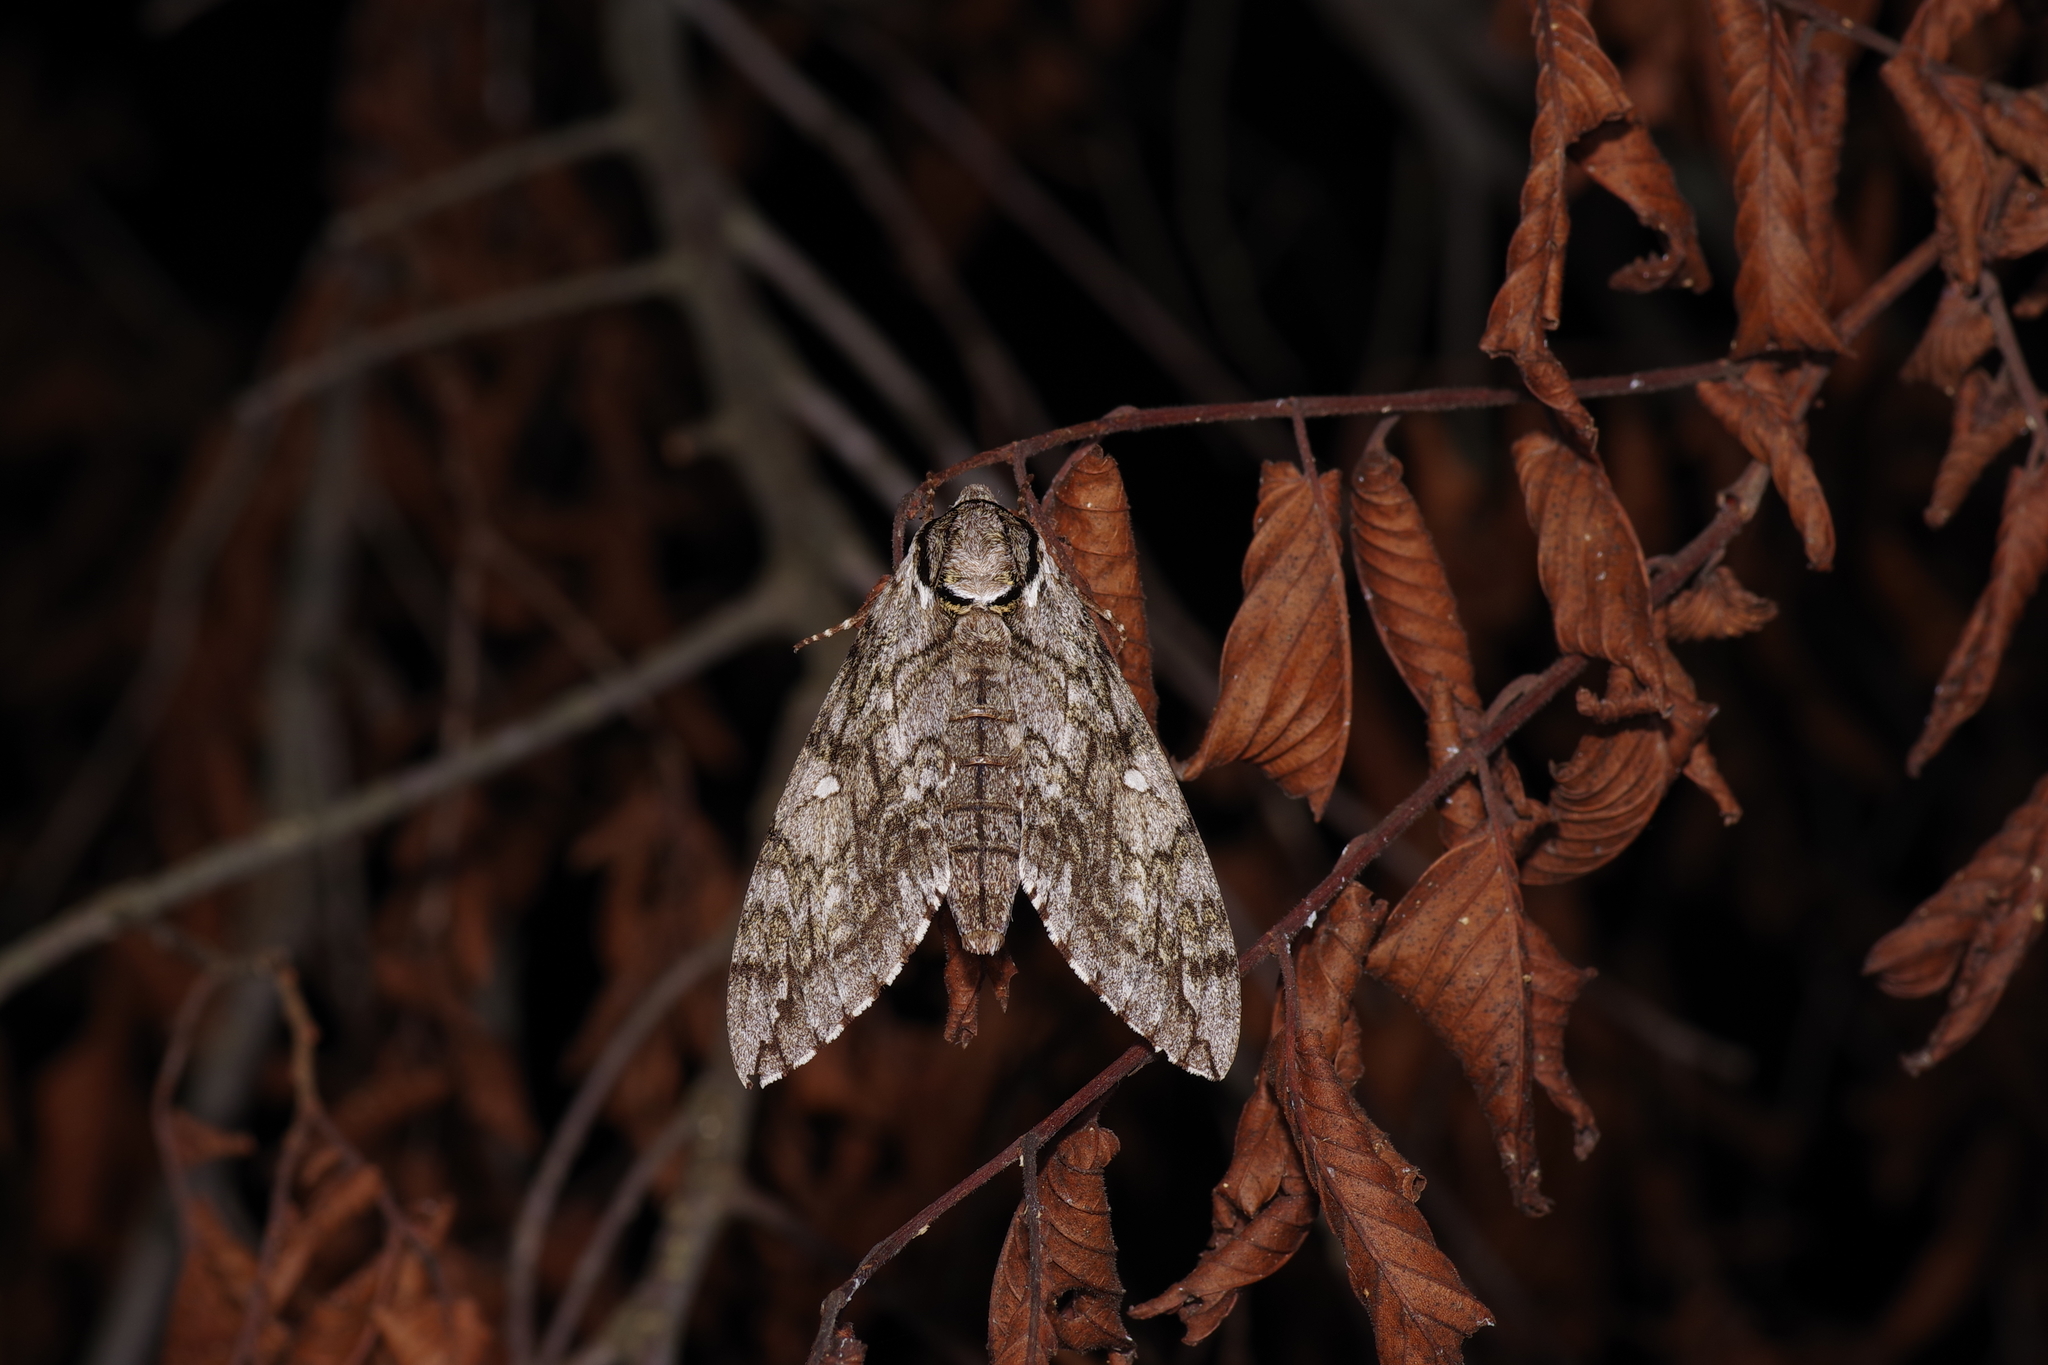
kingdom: Animalia
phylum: Arthropoda
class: Insecta
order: Lepidoptera
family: Sphingidae
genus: Ceratomia
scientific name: Ceratomia undulosa
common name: Waved sphinx
